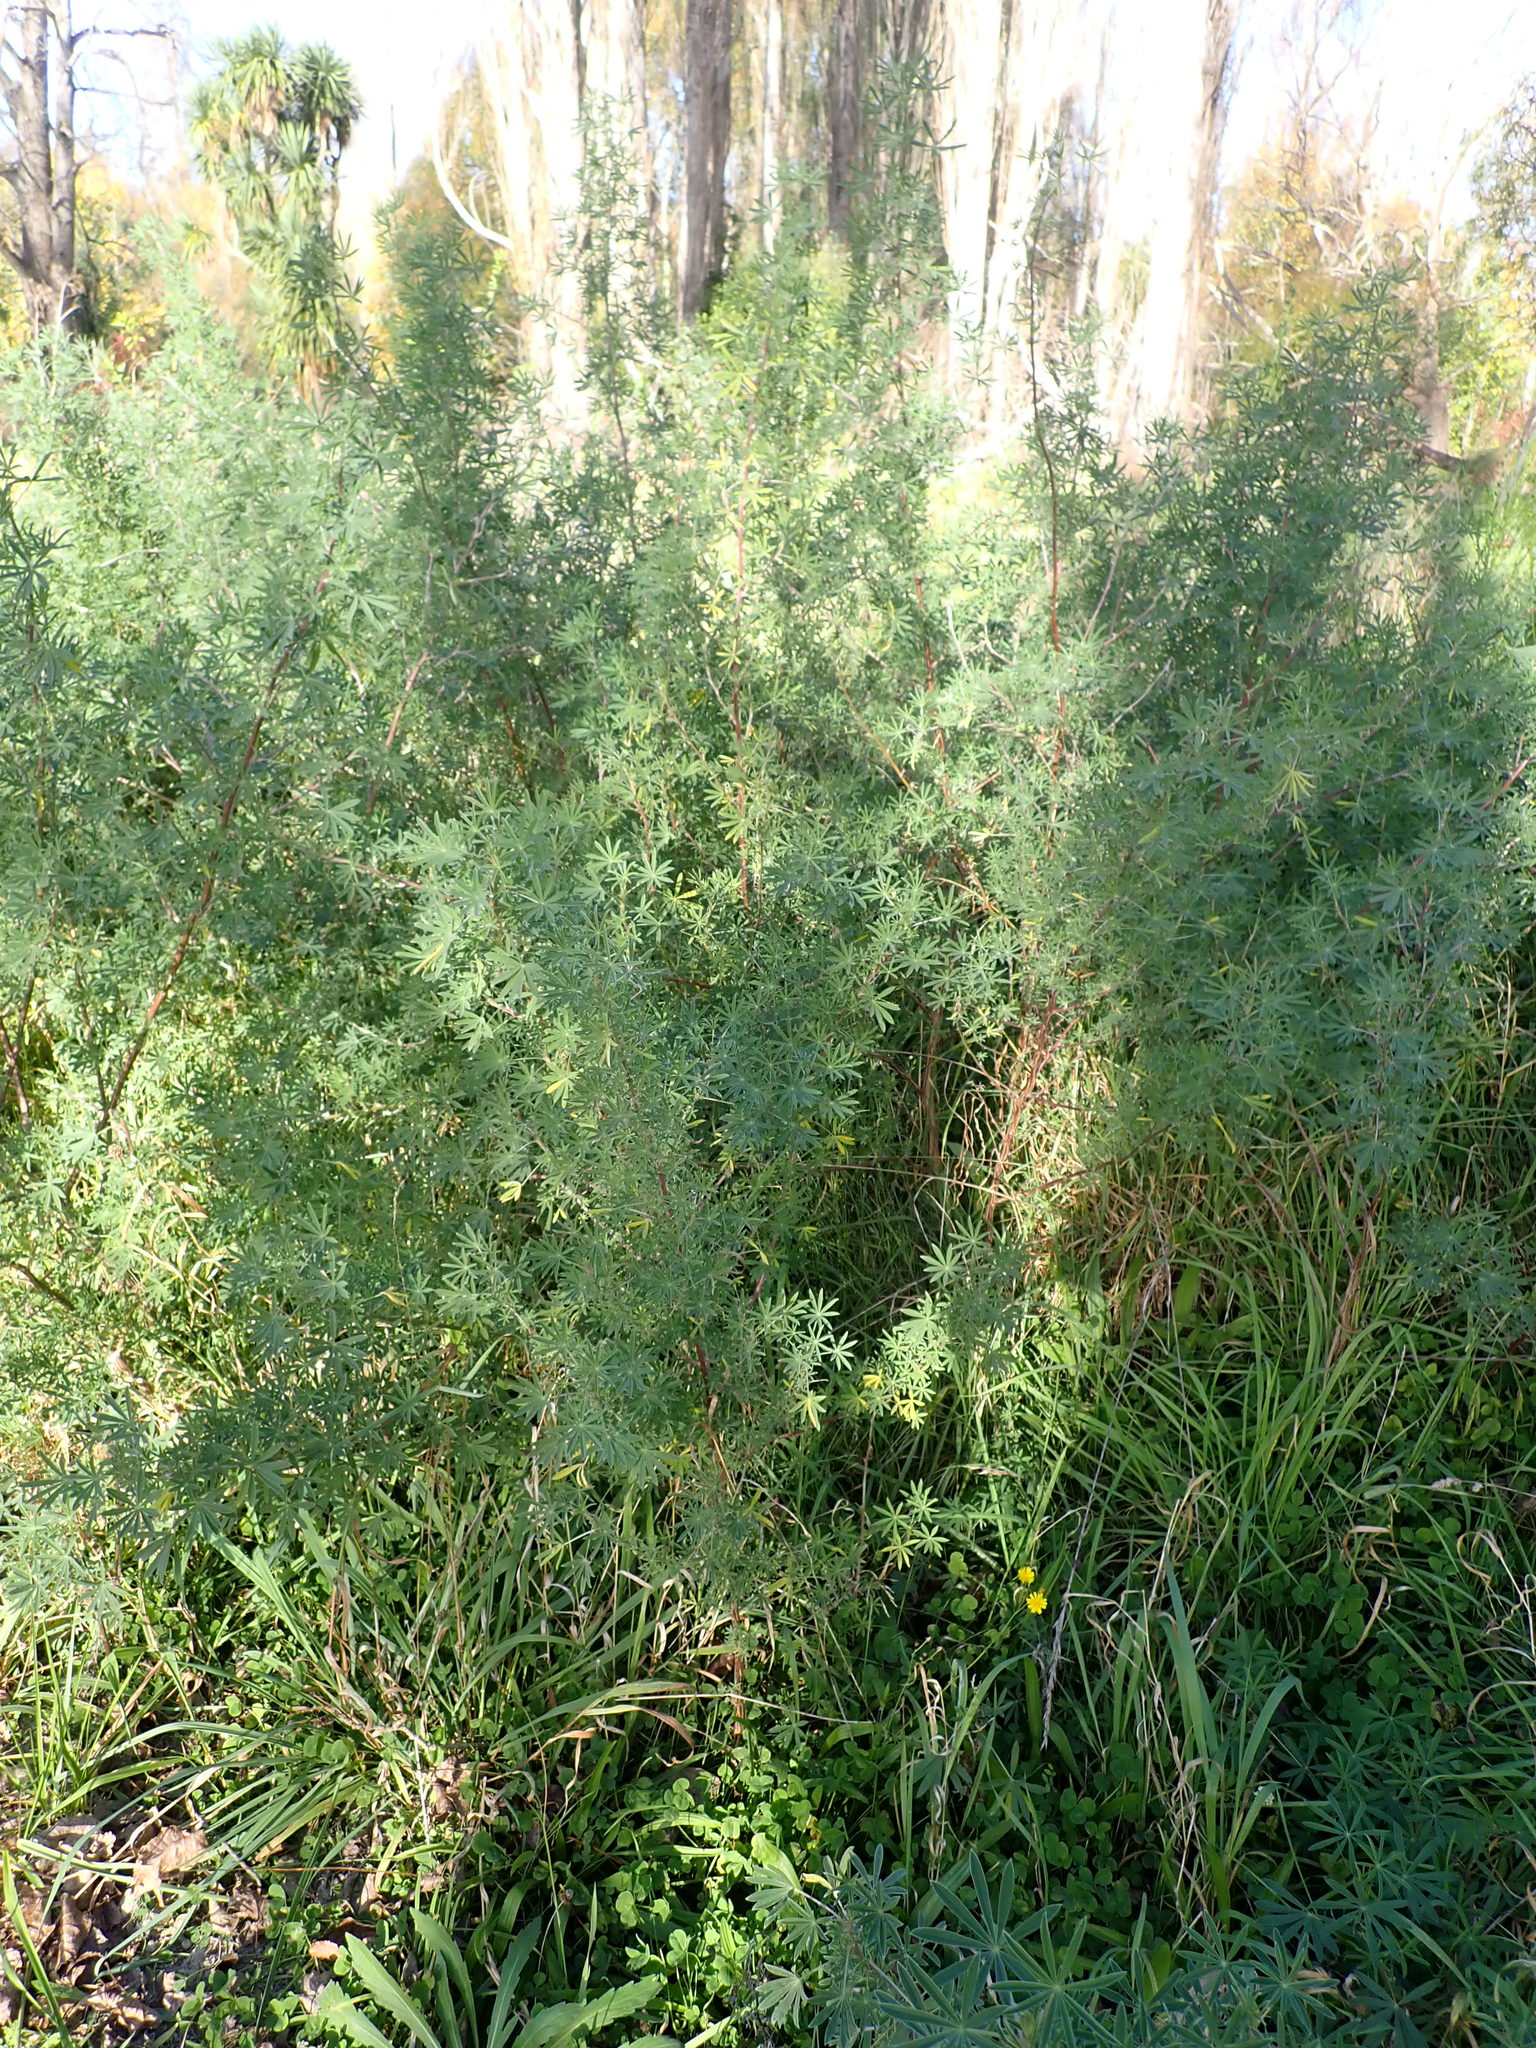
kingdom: Plantae
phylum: Tracheophyta
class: Magnoliopsida
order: Fabales
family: Fabaceae
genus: Lupinus
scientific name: Lupinus arboreus
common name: Yellow bush lupine
